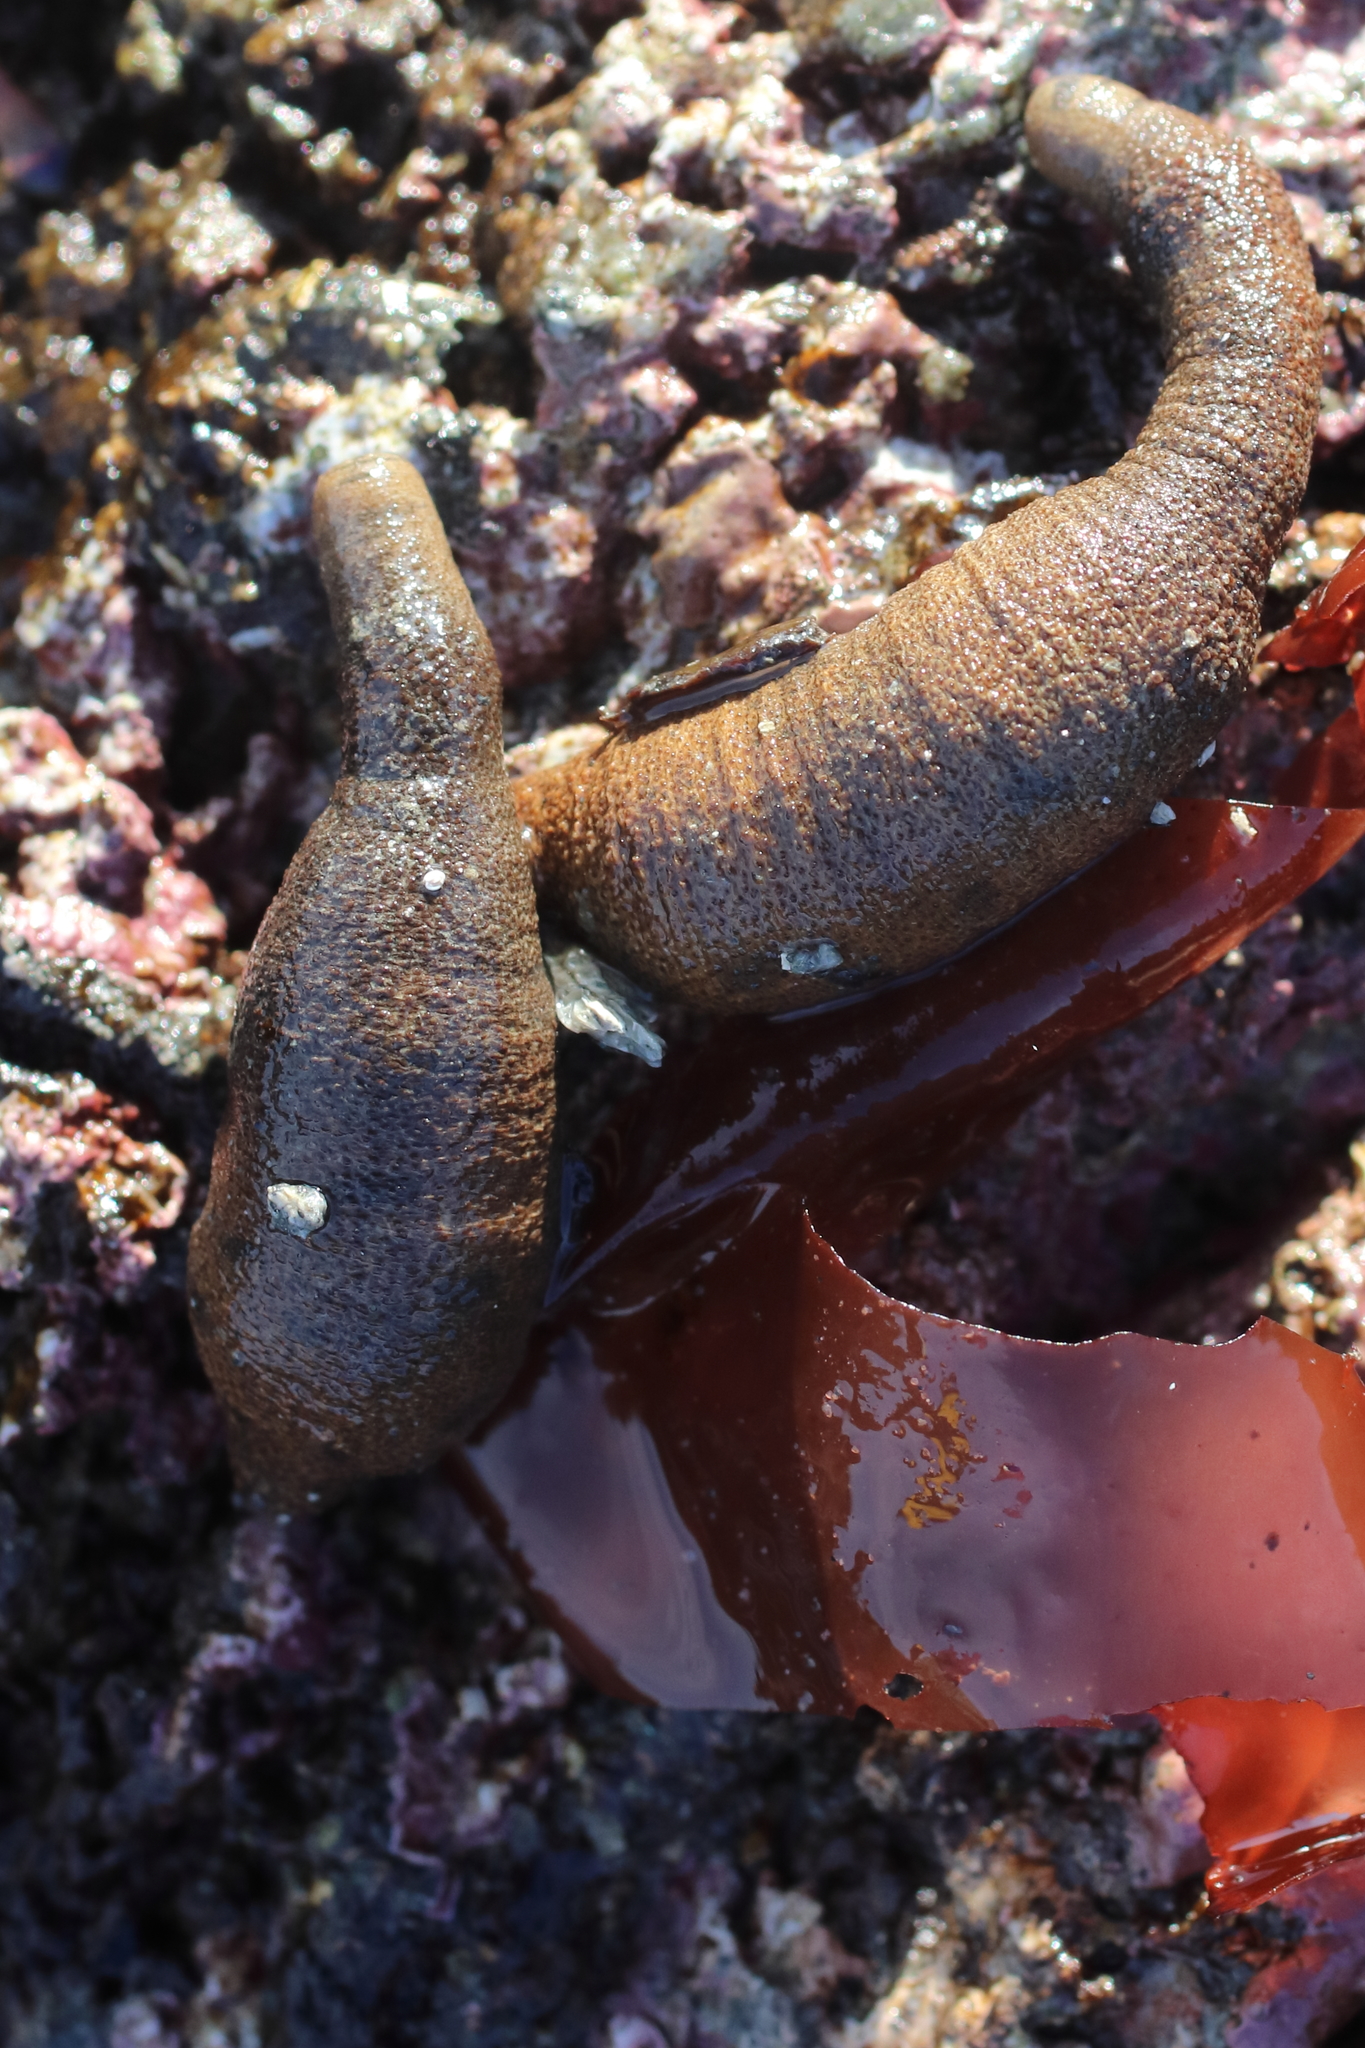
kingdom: Animalia
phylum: Sipuncula
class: Phascolosomatidea
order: Phascolosomatiformes
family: Phascolosomatidae
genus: Phascolosoma
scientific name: Phascolosoma agassizii
